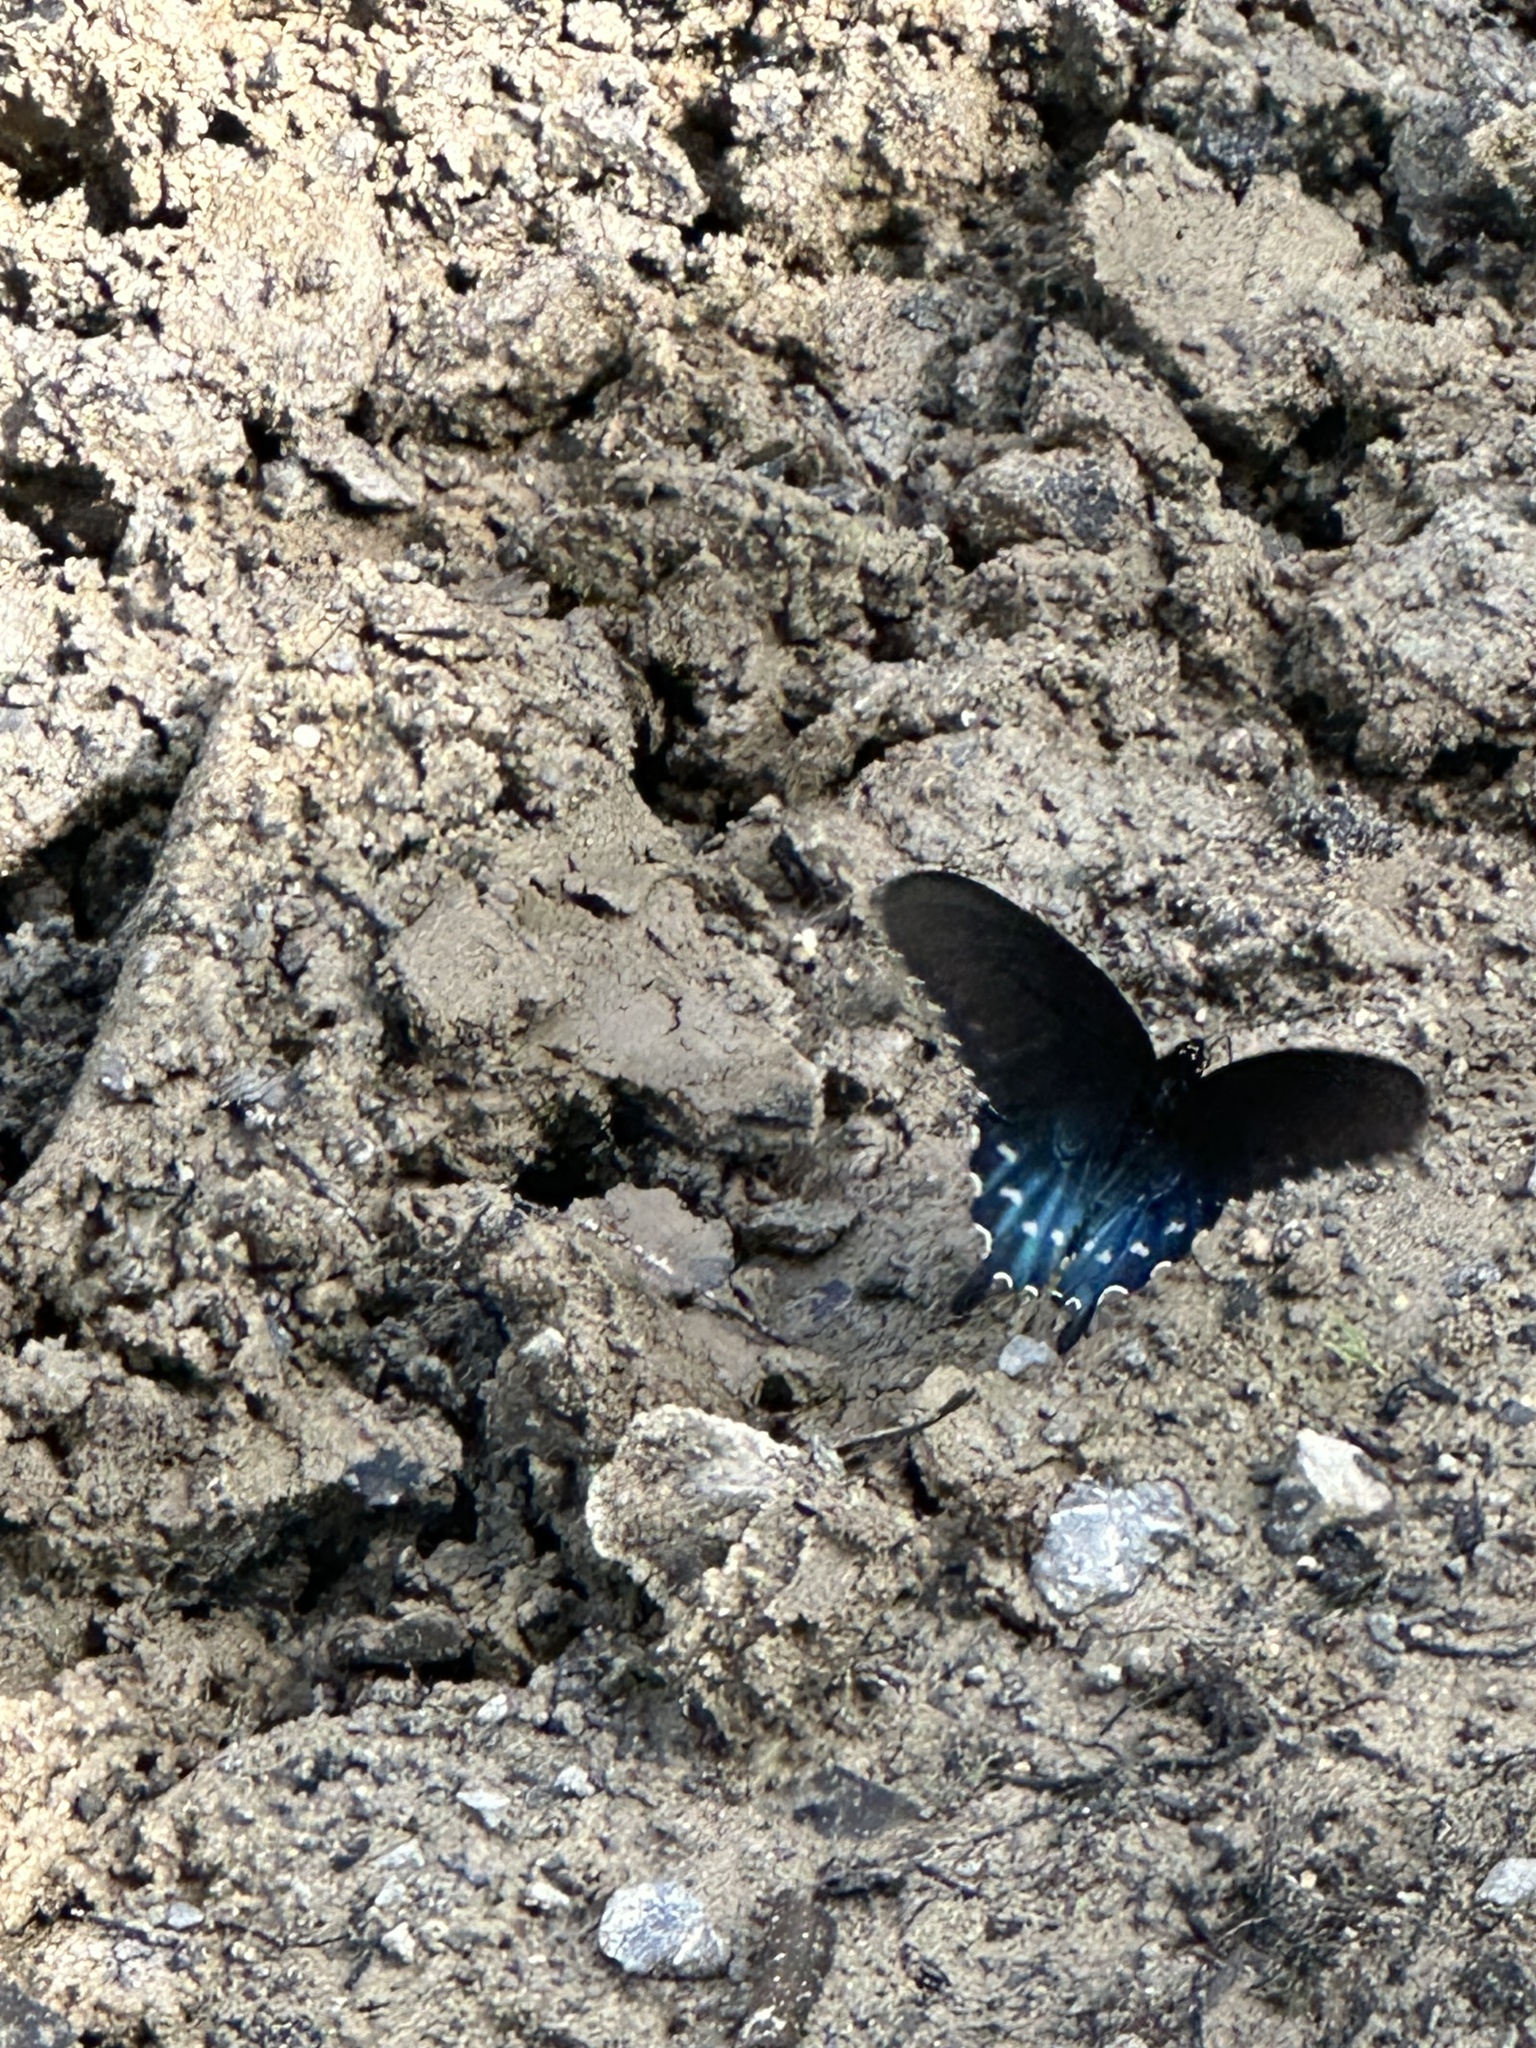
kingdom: Animalia
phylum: Arthropoda
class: Insecta
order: Lepidoptera
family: Papilionidae
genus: Battus
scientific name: Battus philenor
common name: Pipevine swallowtail
